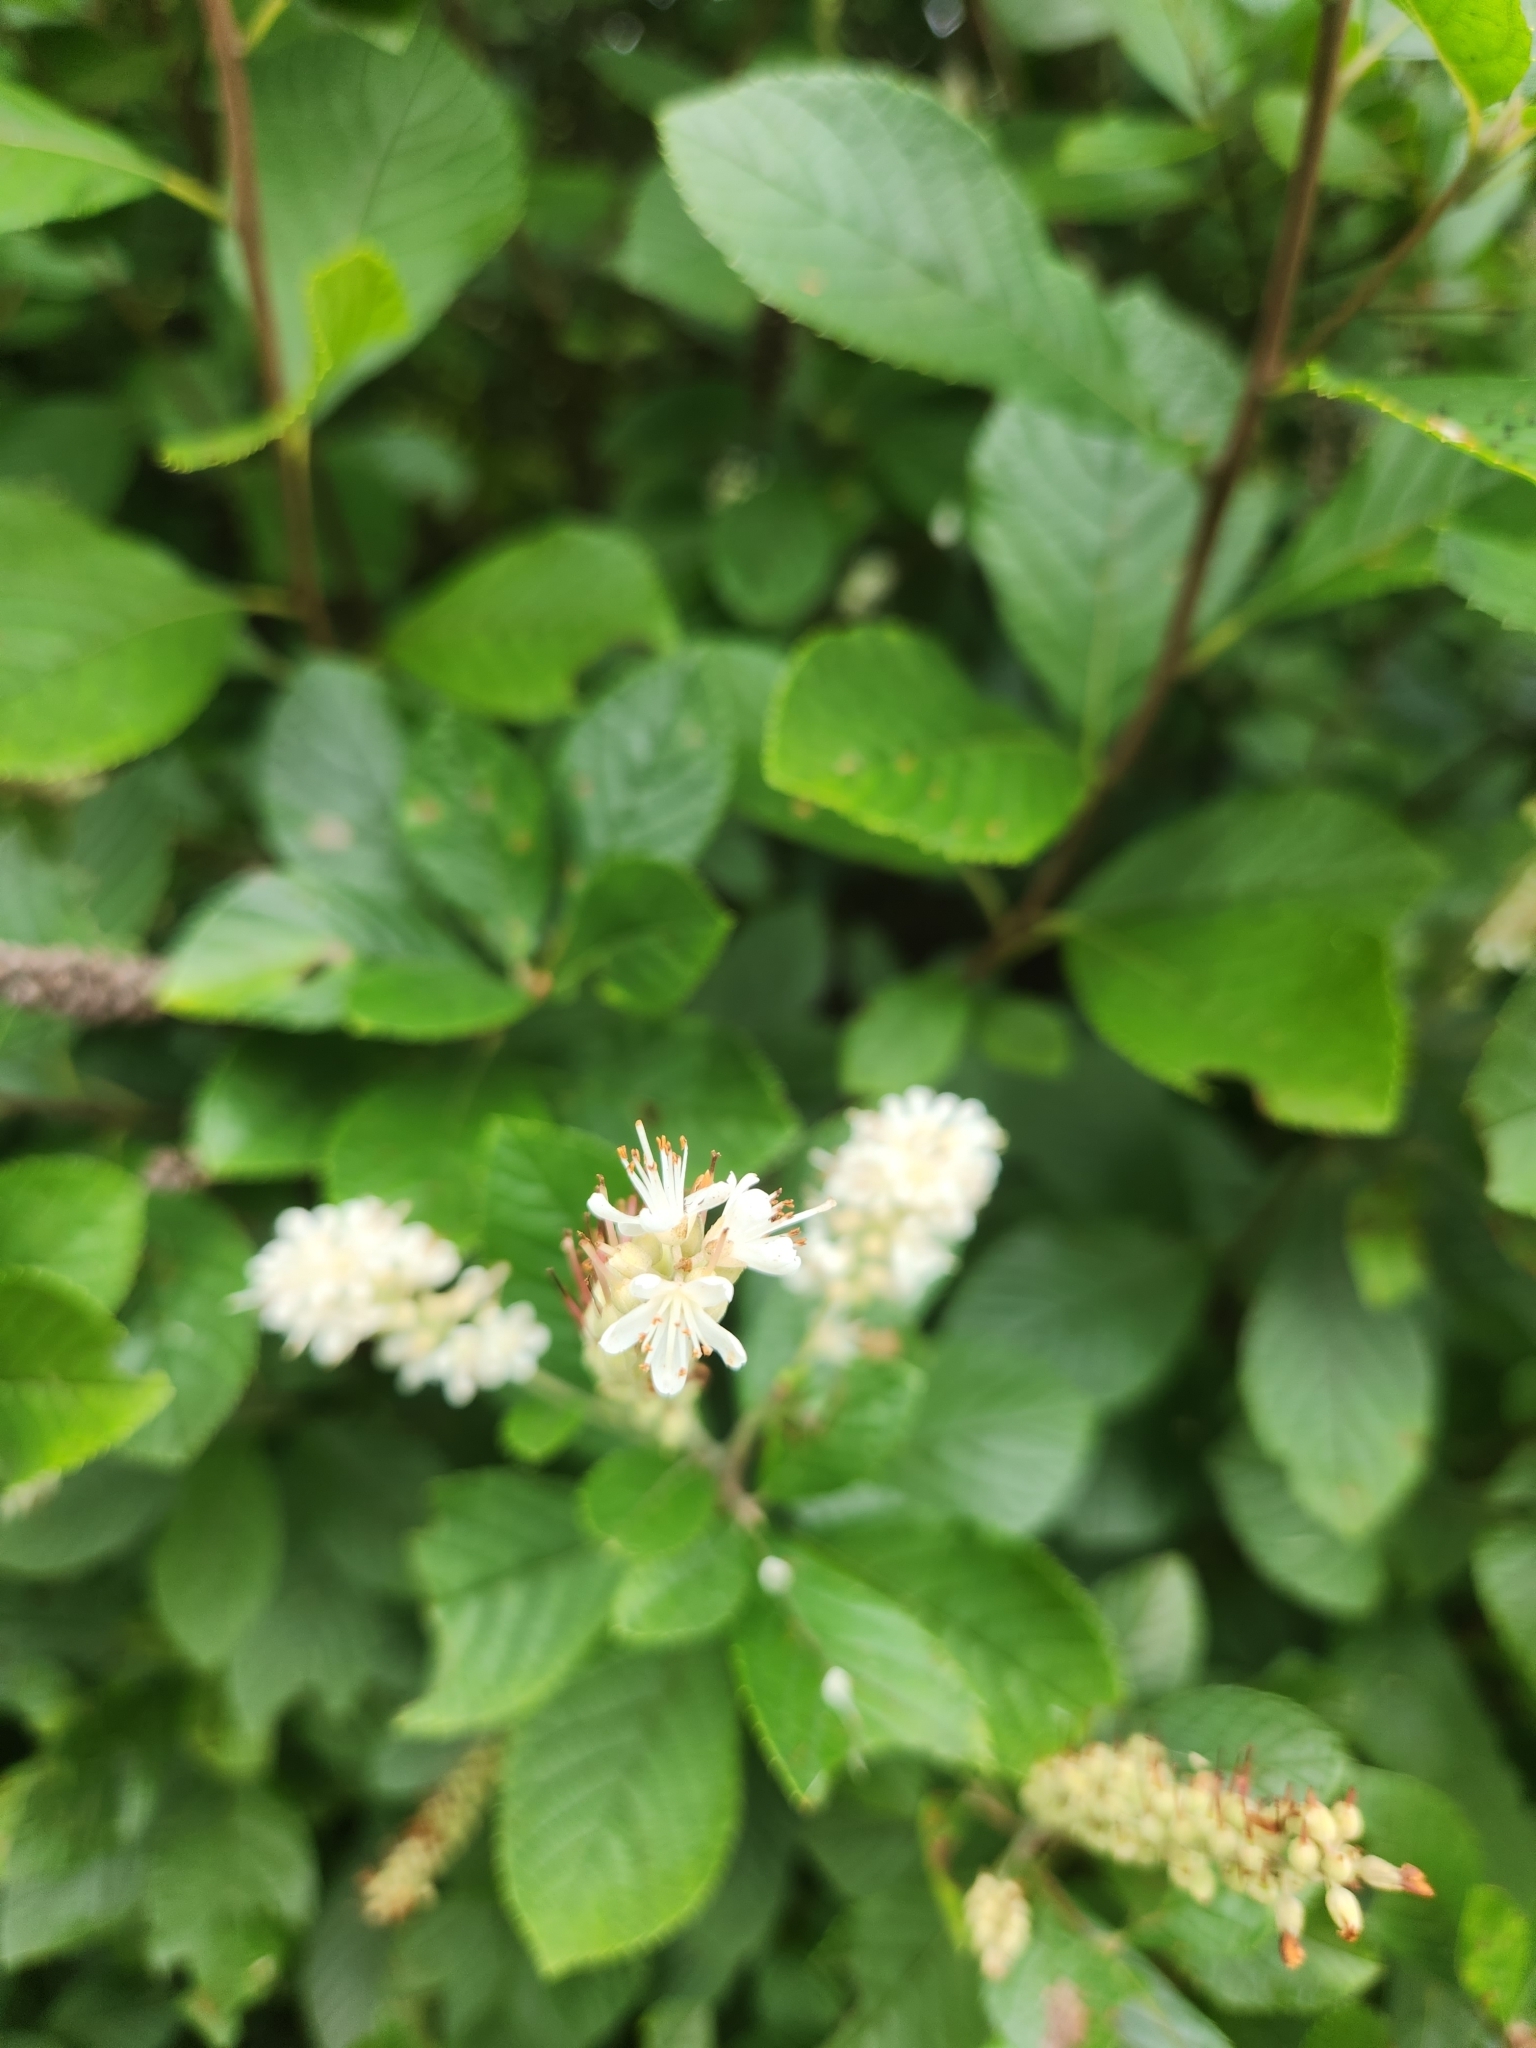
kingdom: Plantae
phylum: Tracheophyta
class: Magnoliopsida
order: Ericales
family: Clethraceae
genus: Clethra
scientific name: Clethra alnifolia
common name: Sweet pepperbush
